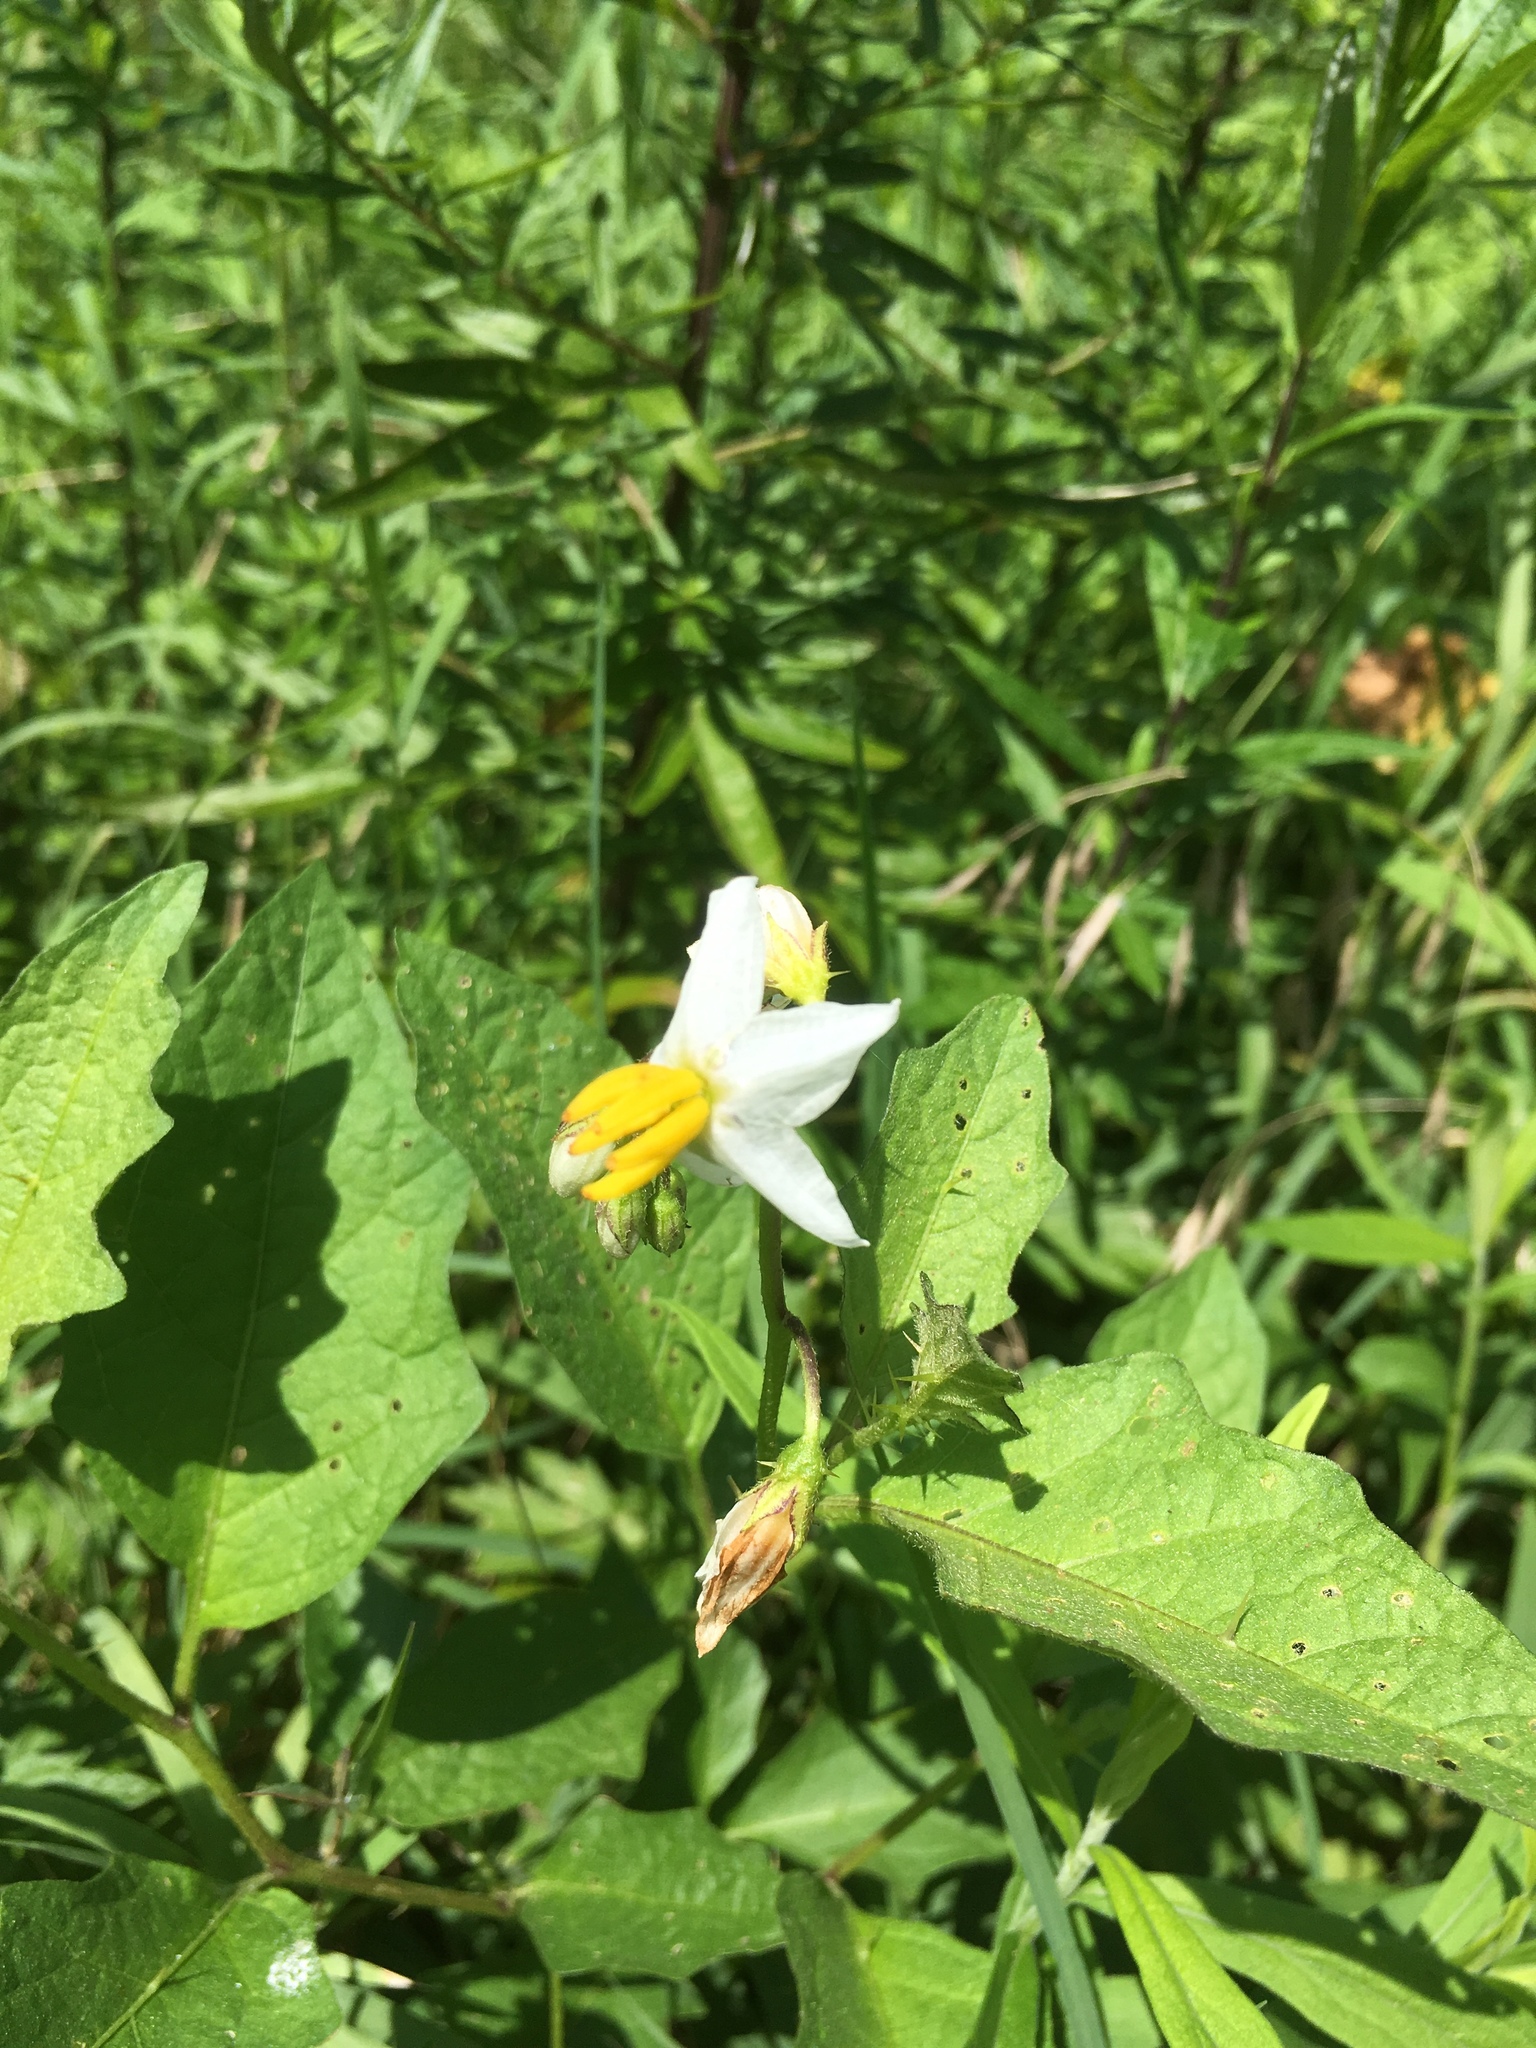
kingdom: Plantae
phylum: Tracheophyta
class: Magnoliopsida
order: Solanales
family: Solanaceae
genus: Solanum
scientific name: Solanum carolinense
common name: Horse-nettle
